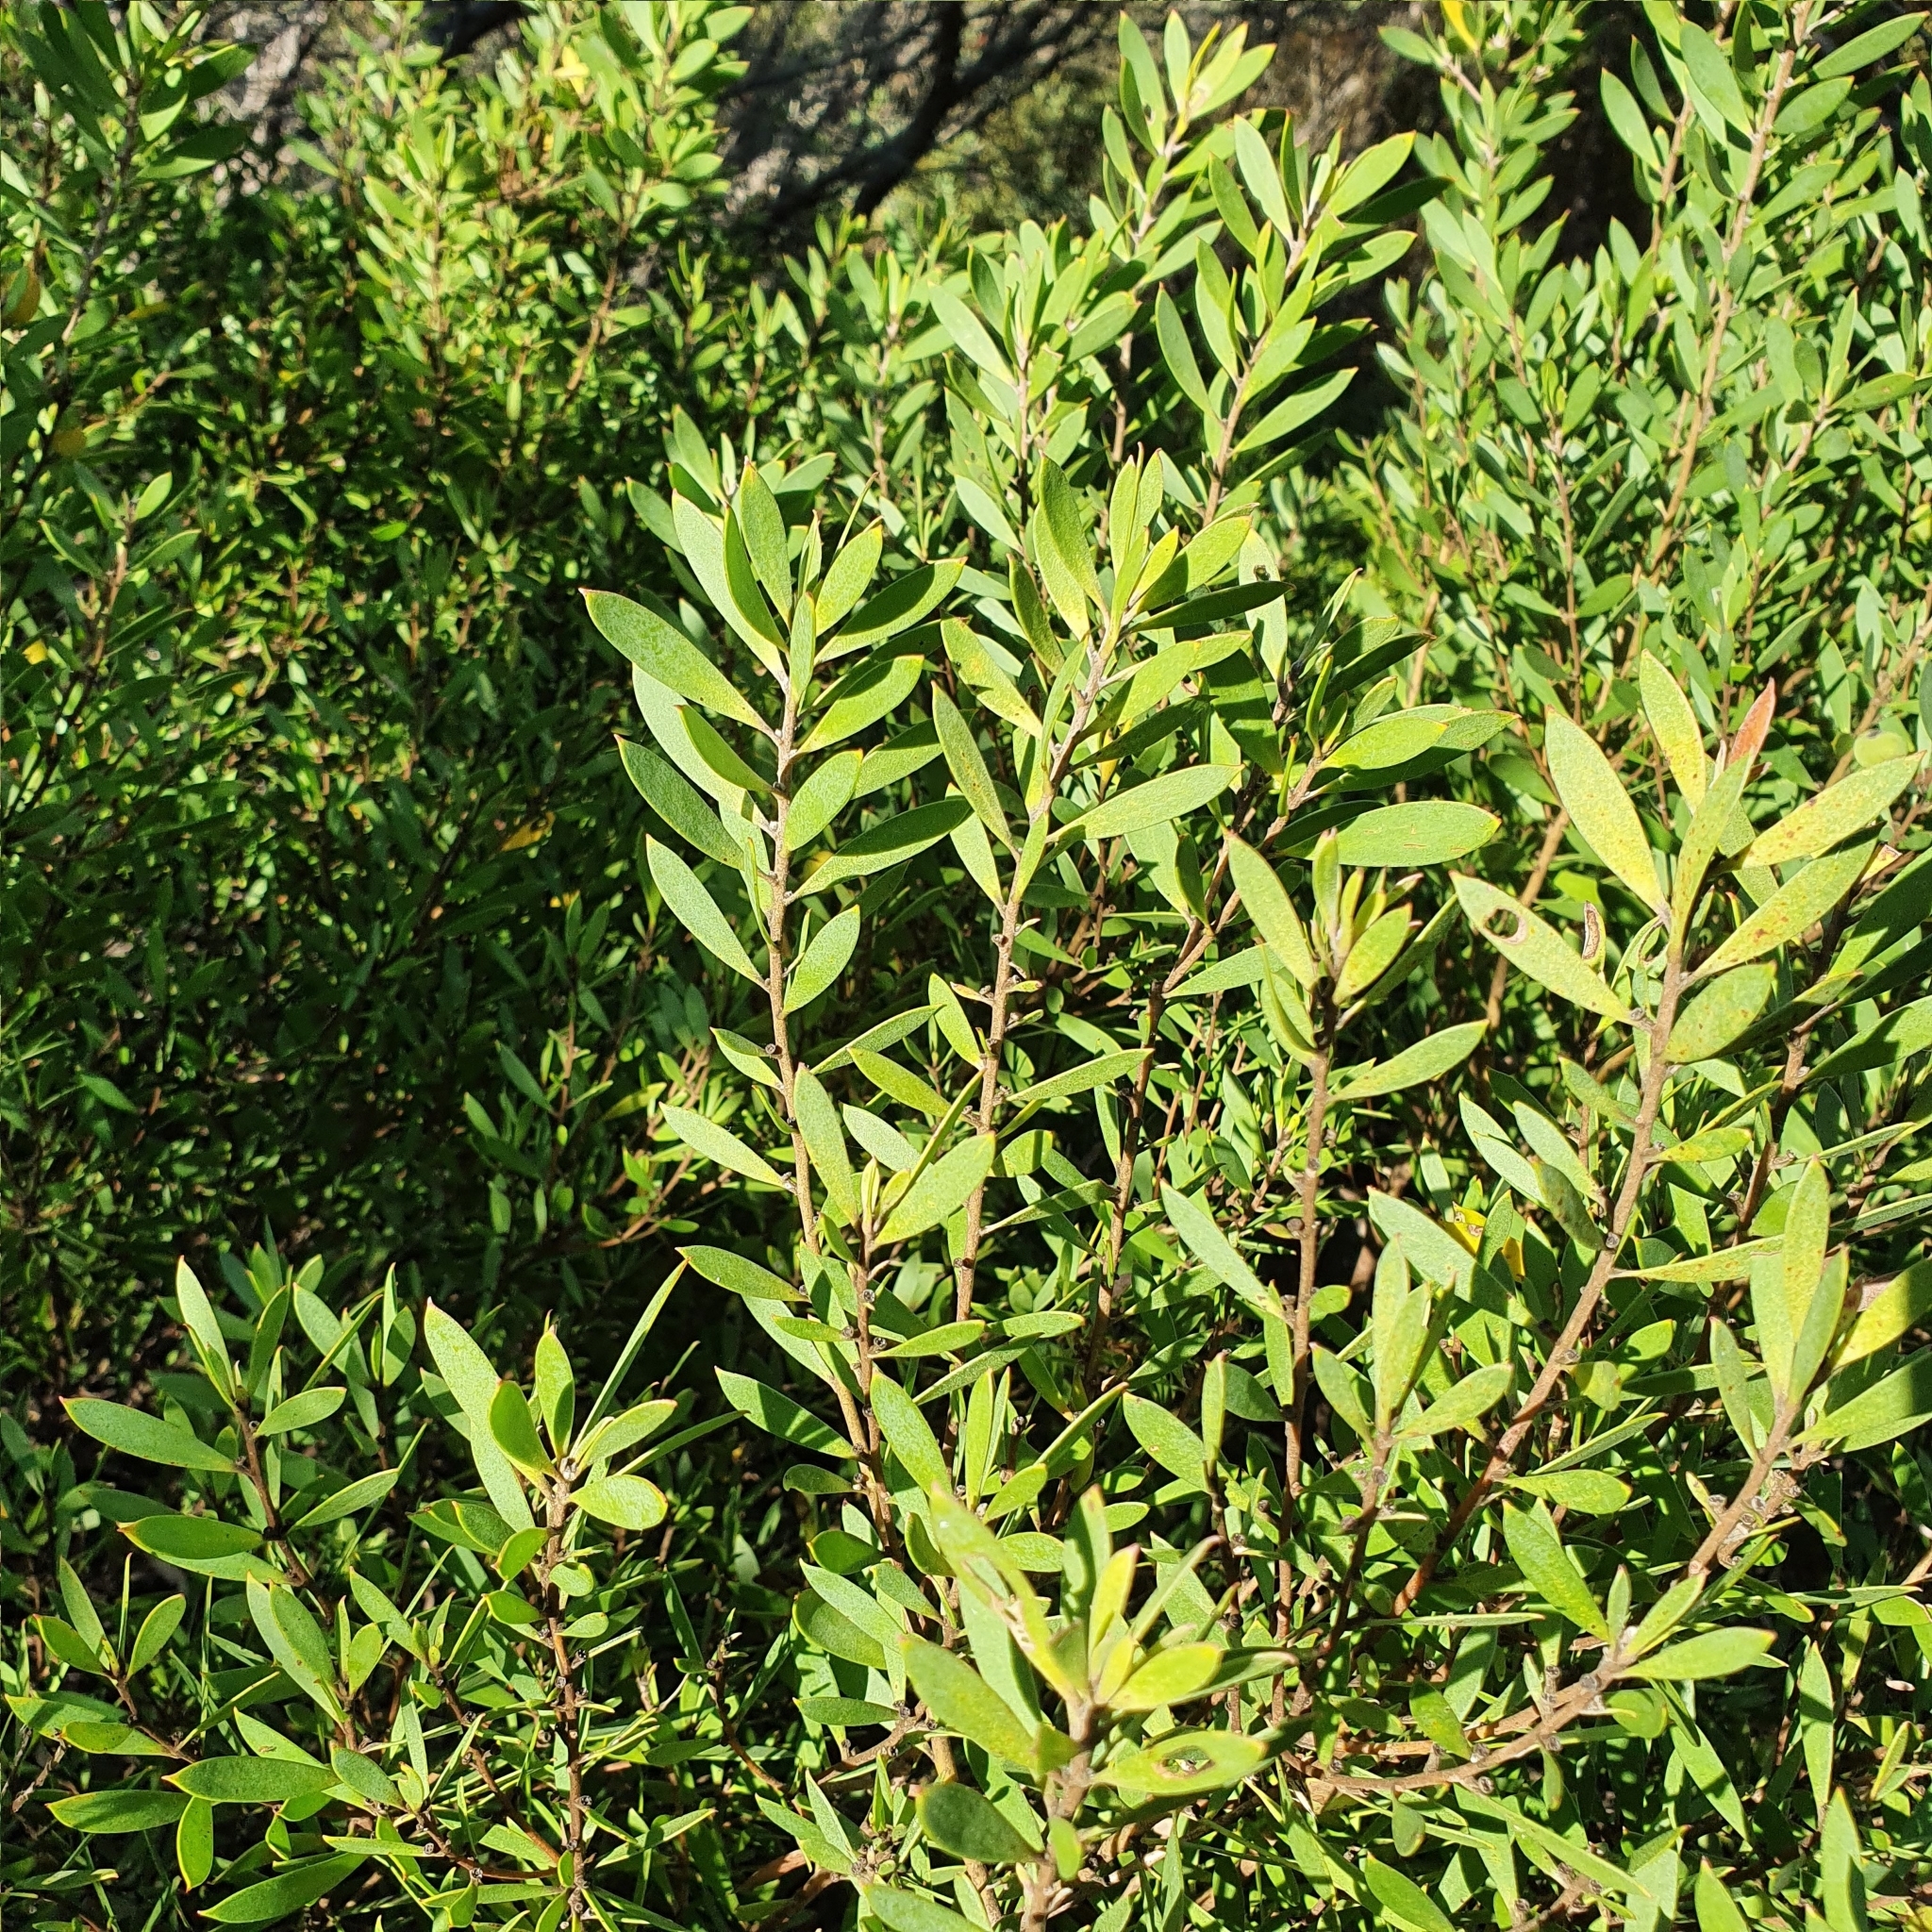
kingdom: Plantae
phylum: Tracheophyta
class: Magnoliopsida
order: Proteales
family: Proteaceae
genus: Persoonia
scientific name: Persoonia lanceolata
